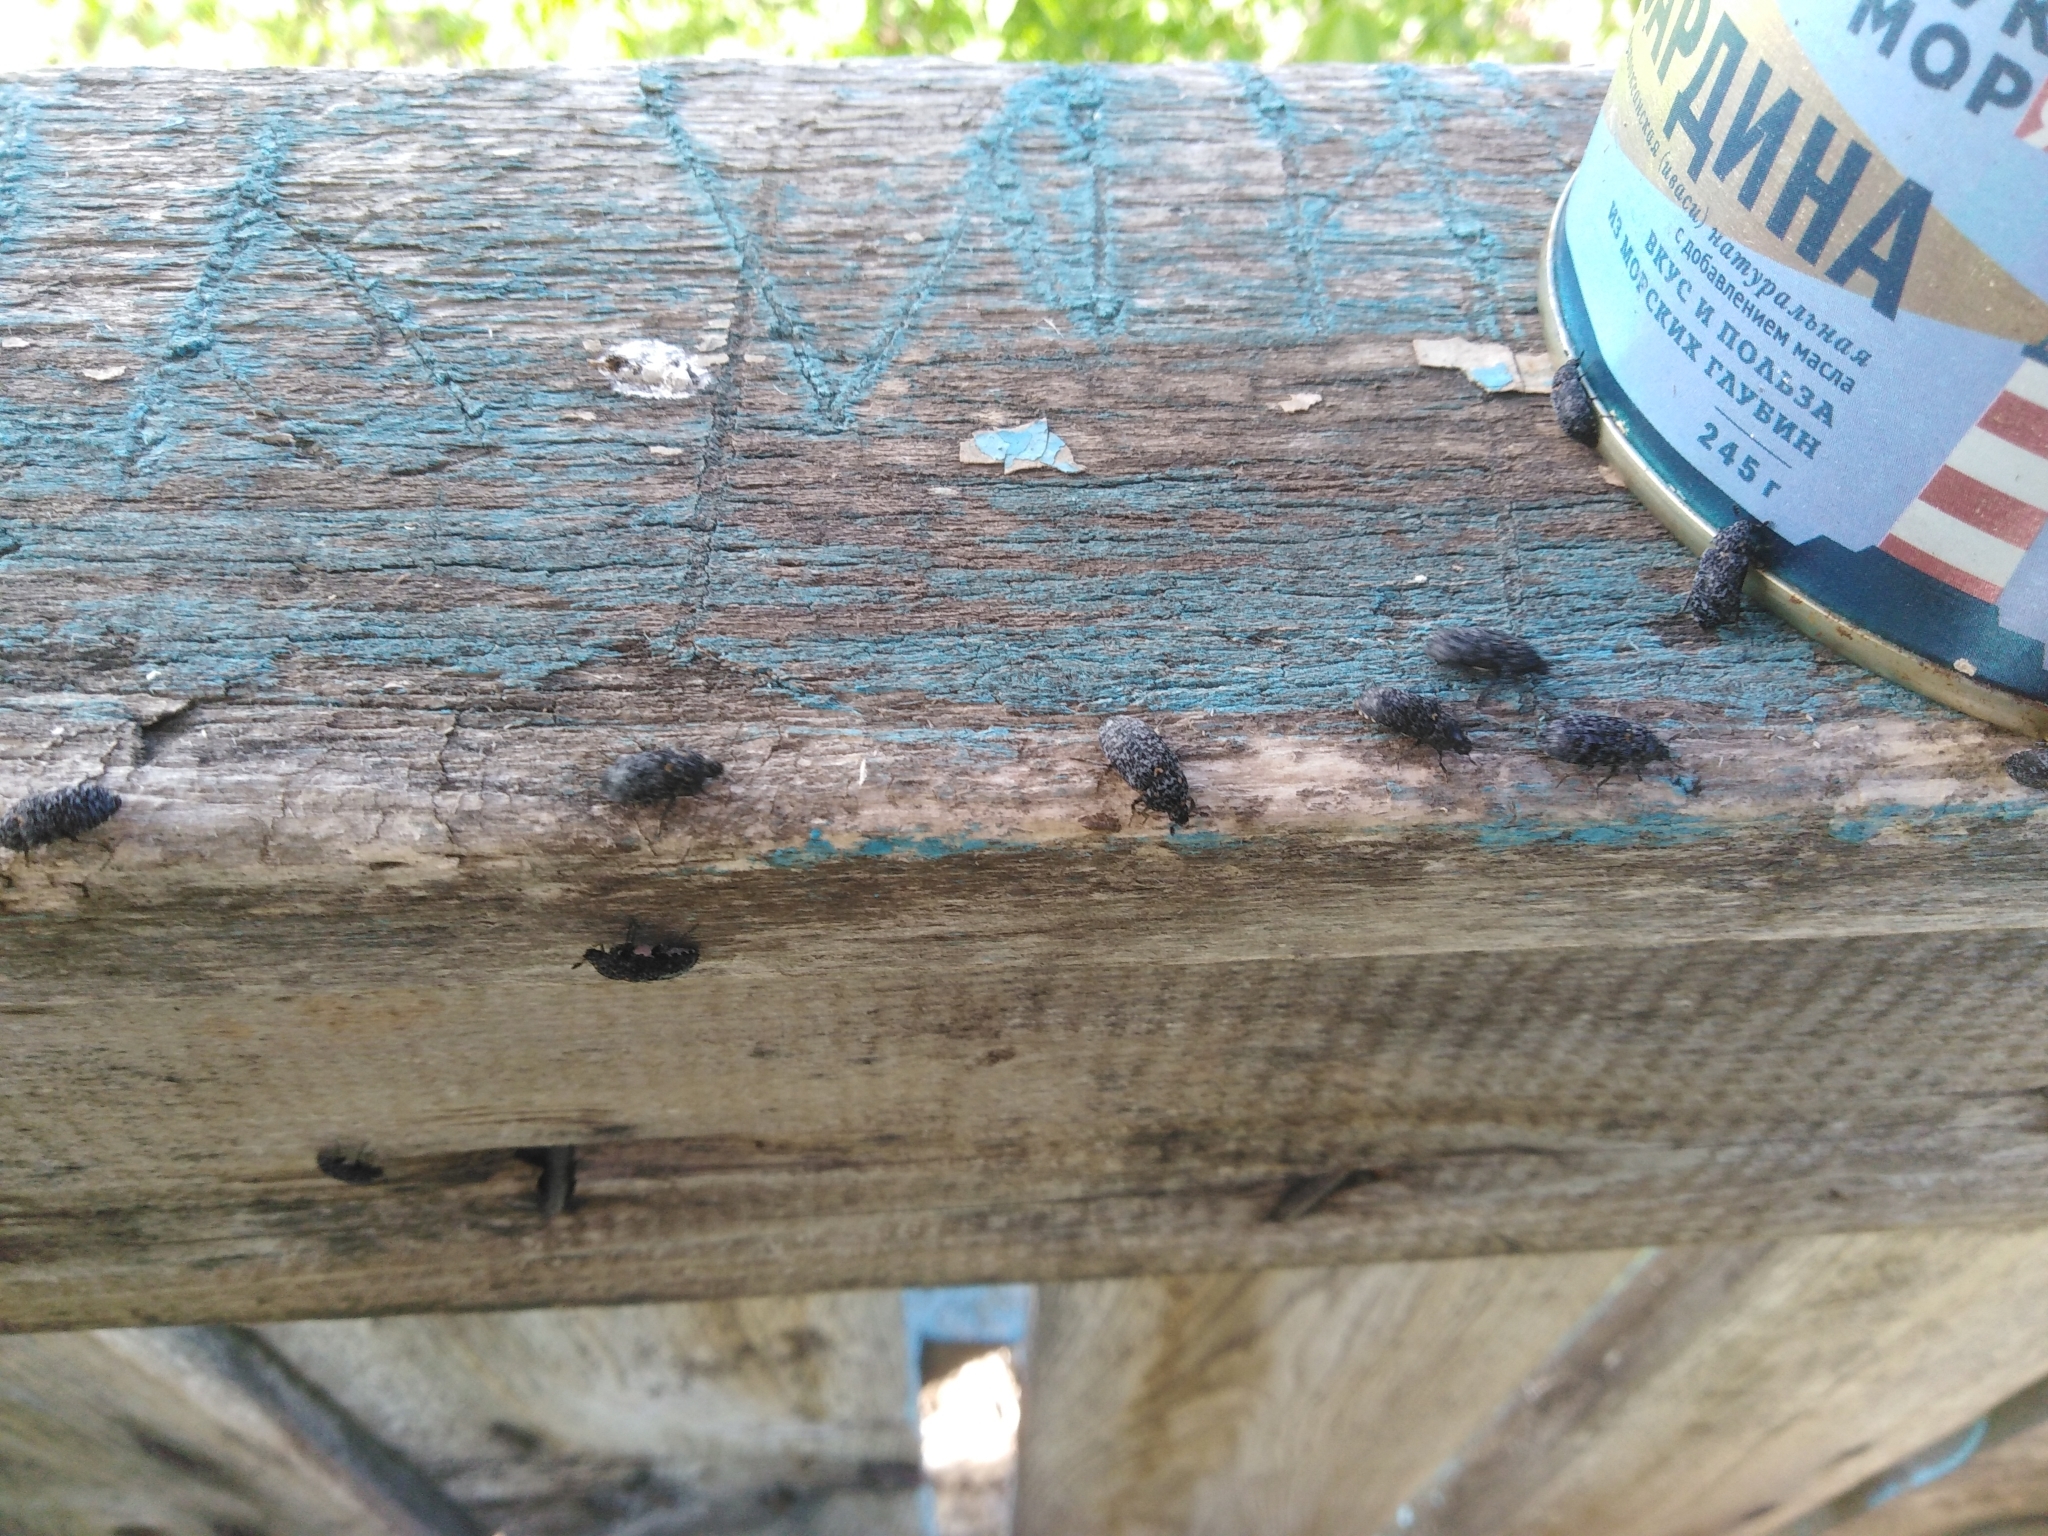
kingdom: Animalia
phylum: Arthropoda
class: Insecta
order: Coleoptera
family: Dermestidae
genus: Dermestes
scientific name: Dermestes murinus
